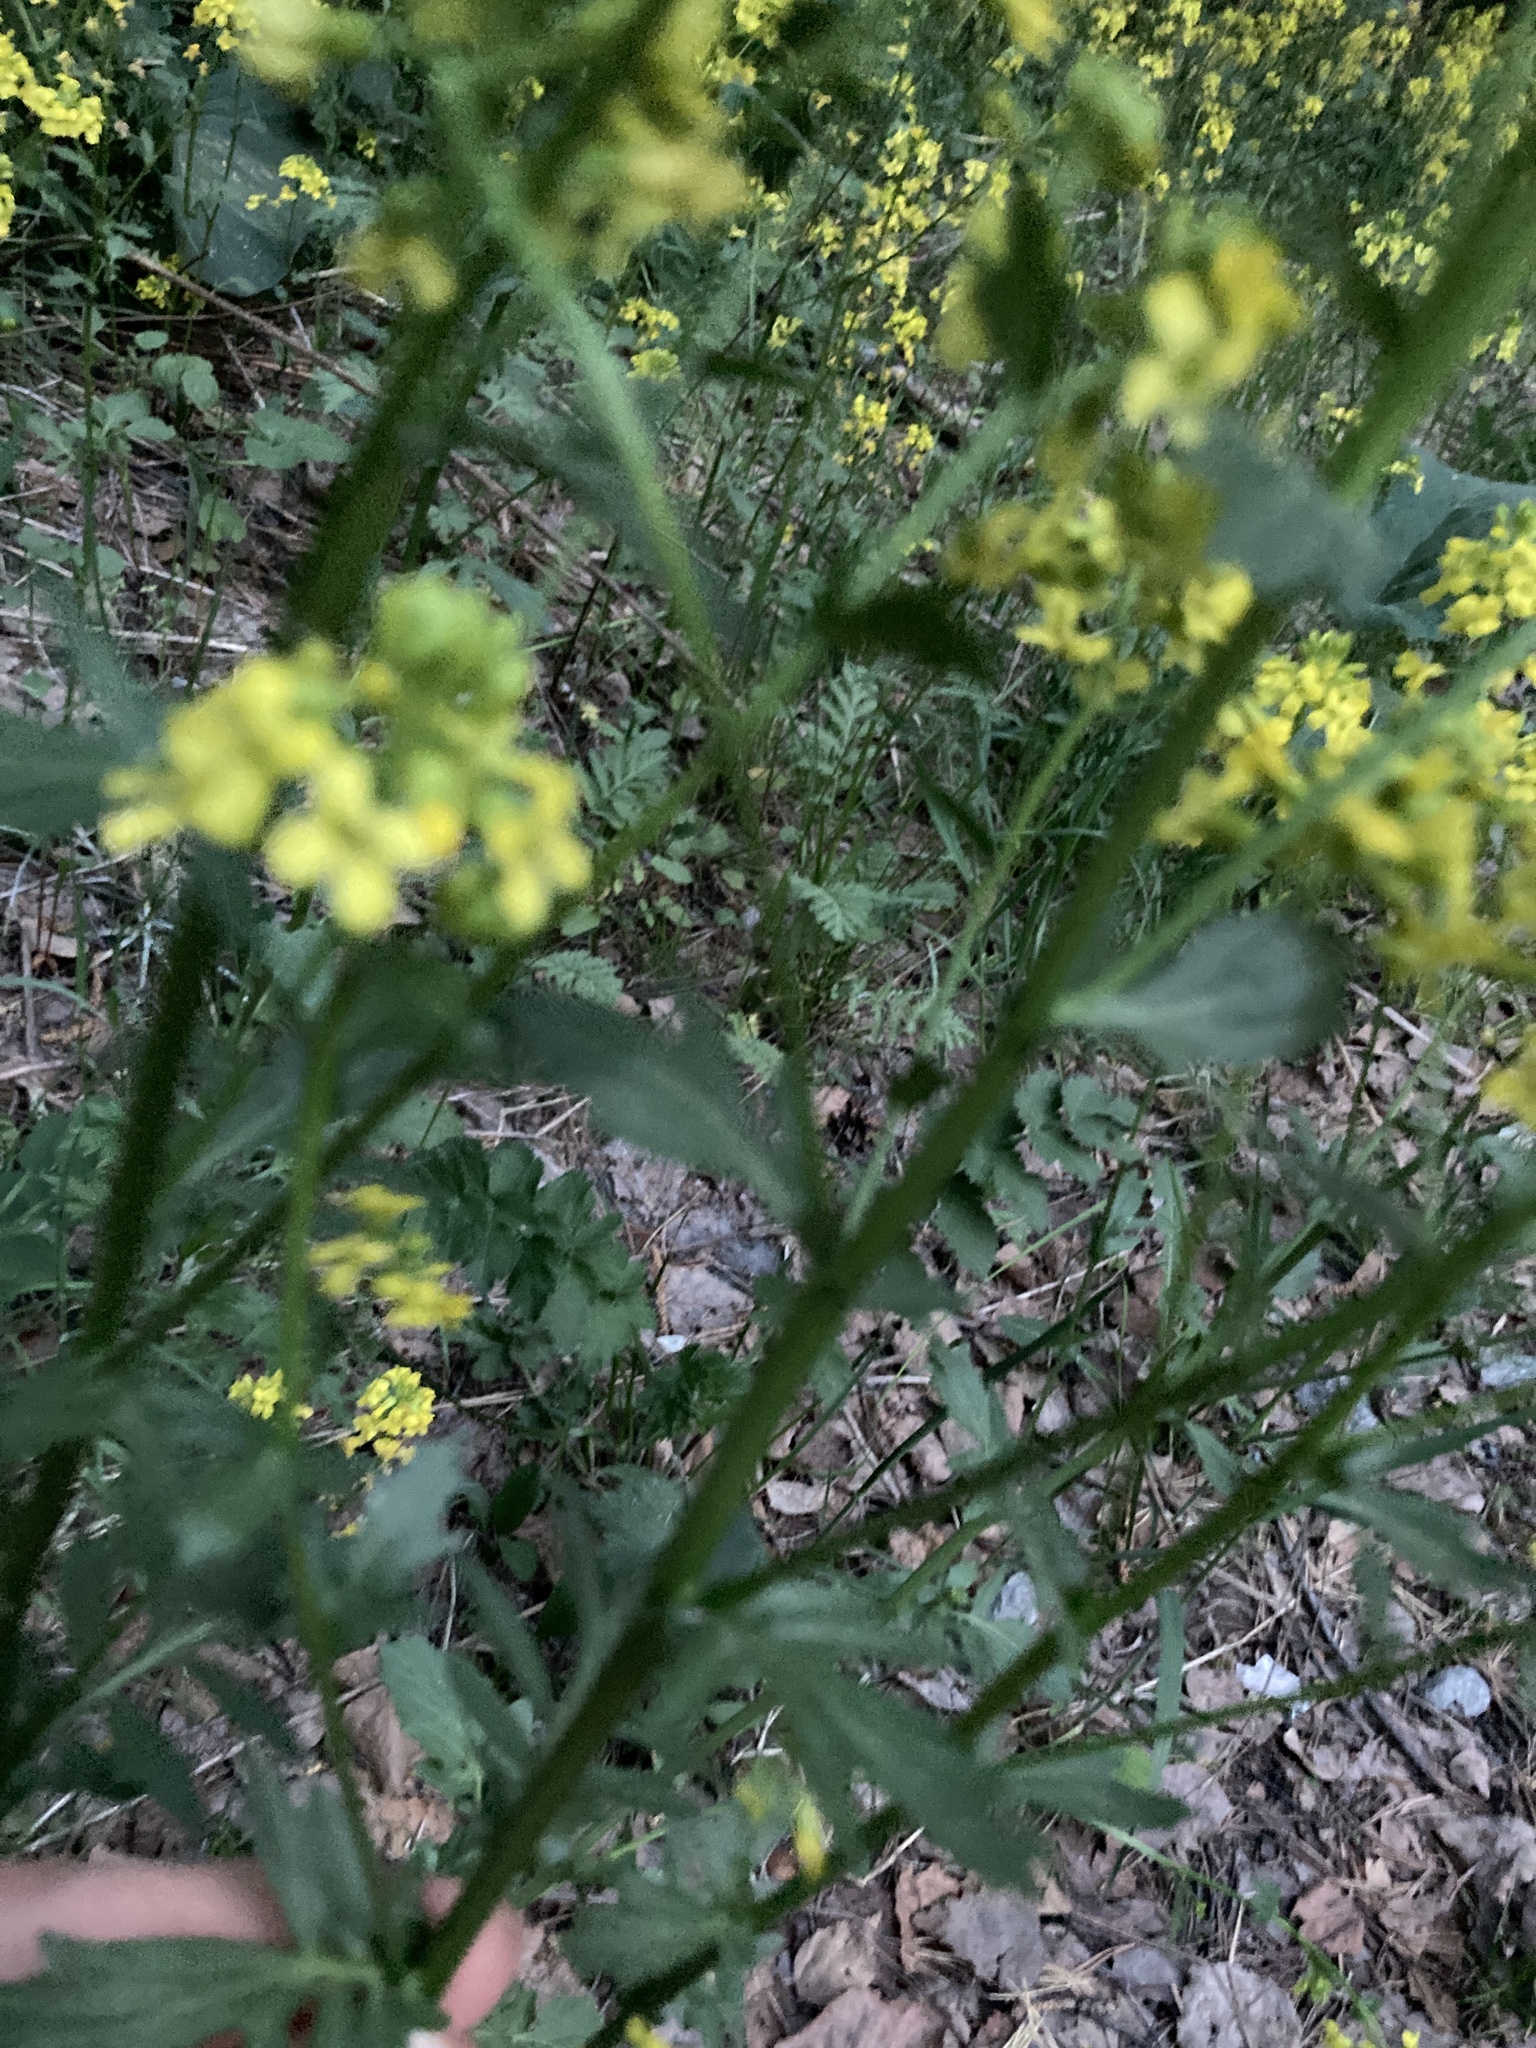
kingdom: Plantae
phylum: Tracheophyta
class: Magnoliopsida
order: Brassicales
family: Brassicaceae
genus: Barbarea
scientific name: Barbarea vulgaris
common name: Cressy-greens
